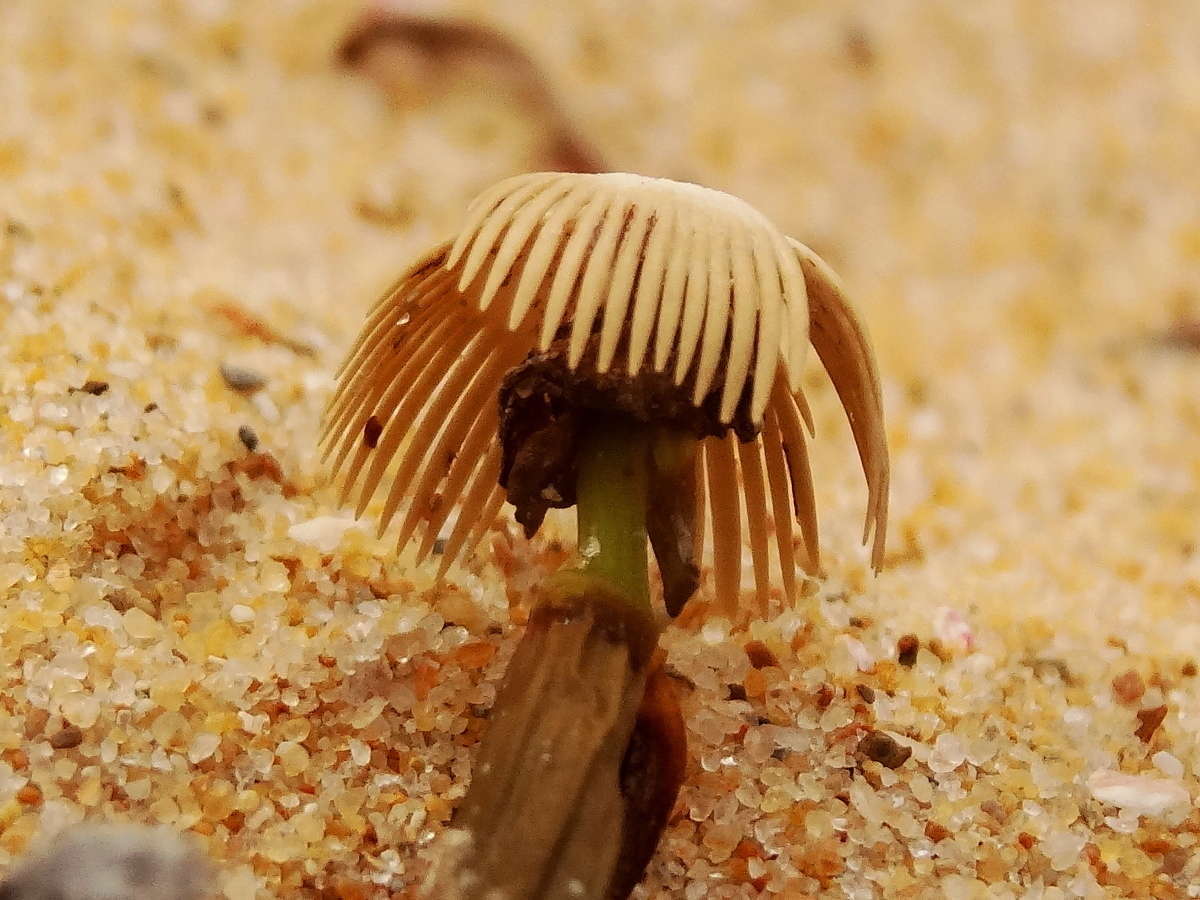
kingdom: Plantae
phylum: Tracheophyta
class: Liliopsida
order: Alismatales
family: Cymodoceaceae
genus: Amphibolis
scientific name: Amphibolis antarctica
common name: Species code: aa
